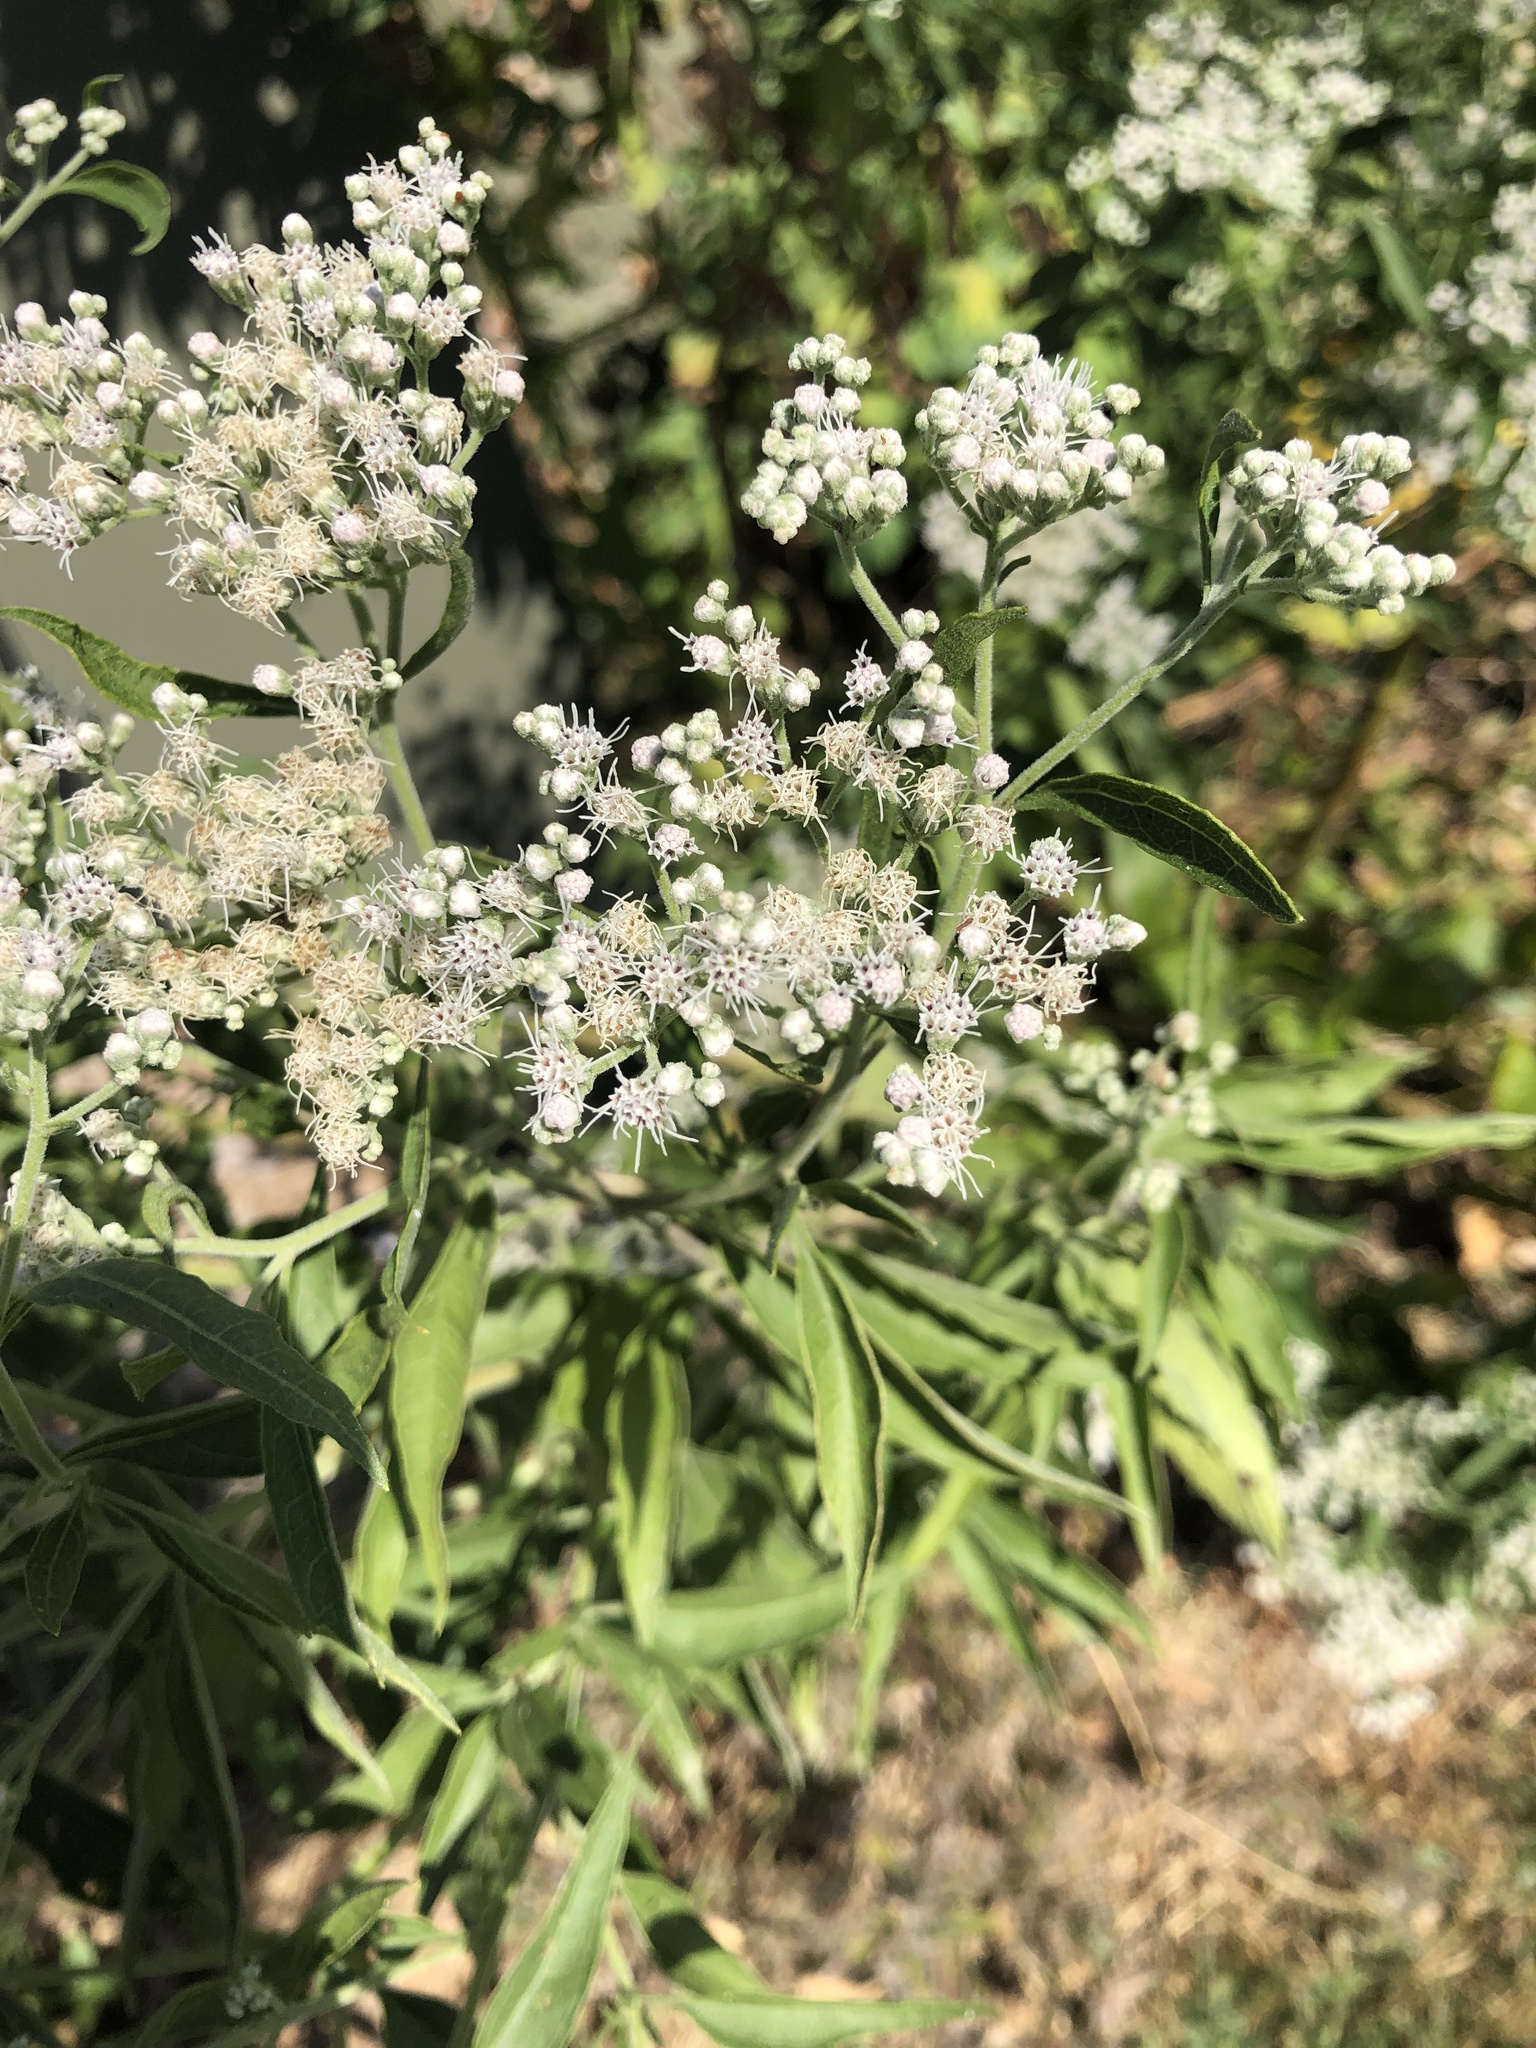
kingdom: Plantae
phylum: Tracheophyta
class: Magnoliopsida
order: Asterales
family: Asteraceae
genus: Eupatorium
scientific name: Eupatorium serotinum
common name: Late boneset
